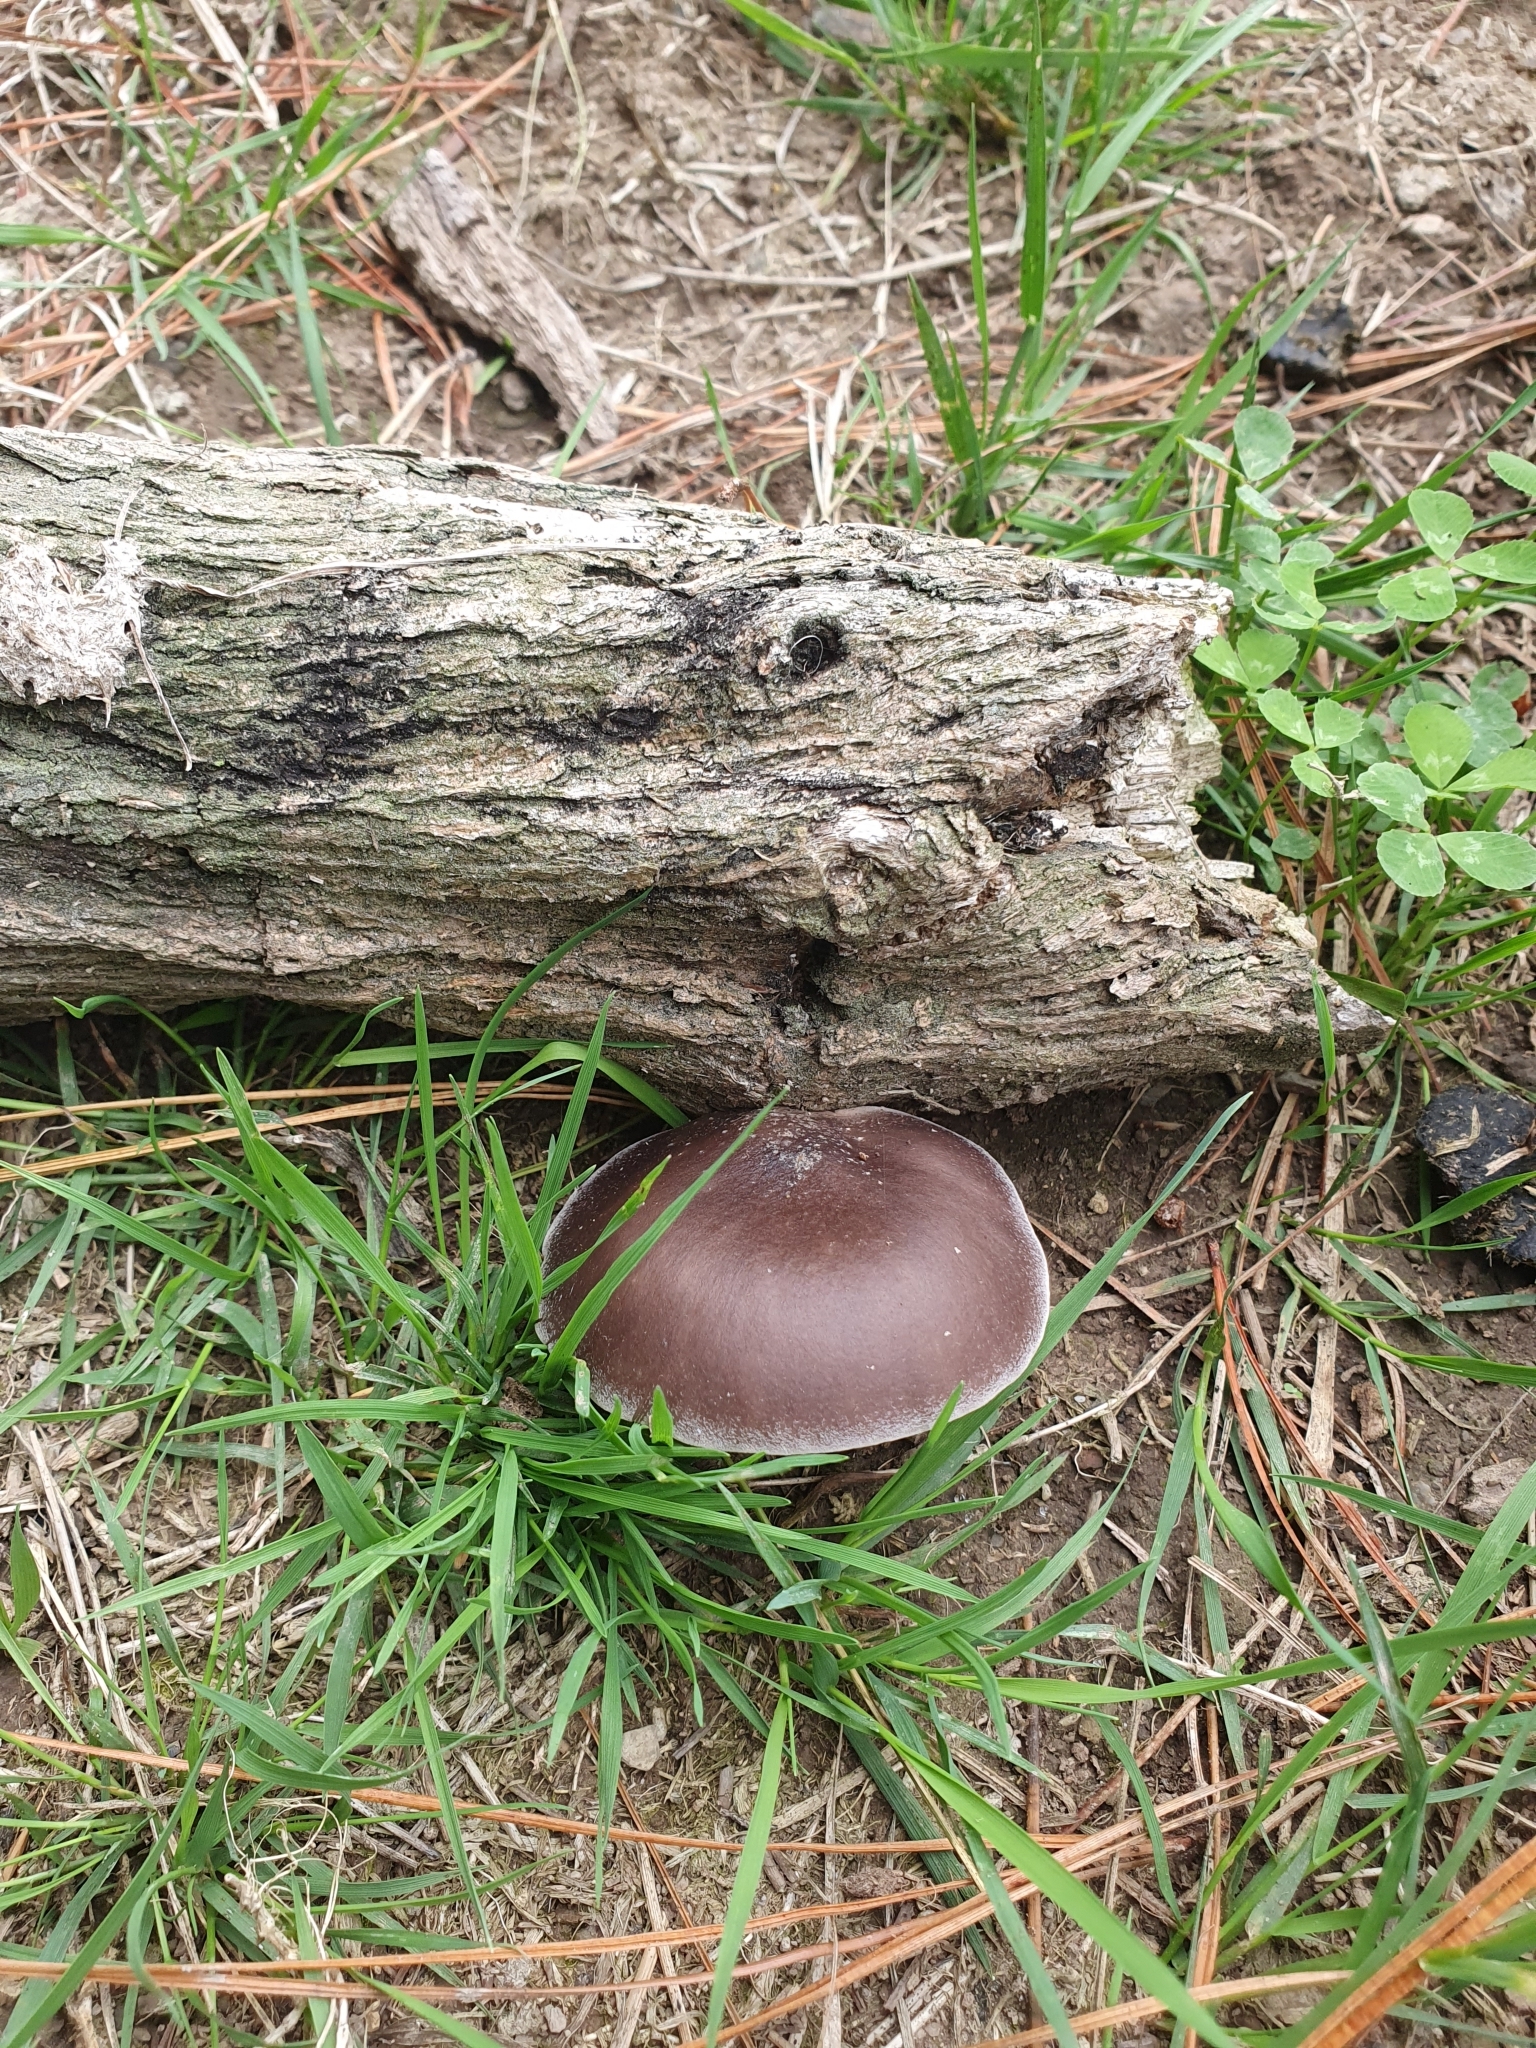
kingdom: Fungi
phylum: Basidiomycota
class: Agaricomycetes
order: Agaricales
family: Pleurotaceae
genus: Pleurotus
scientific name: Pleurotus australis
